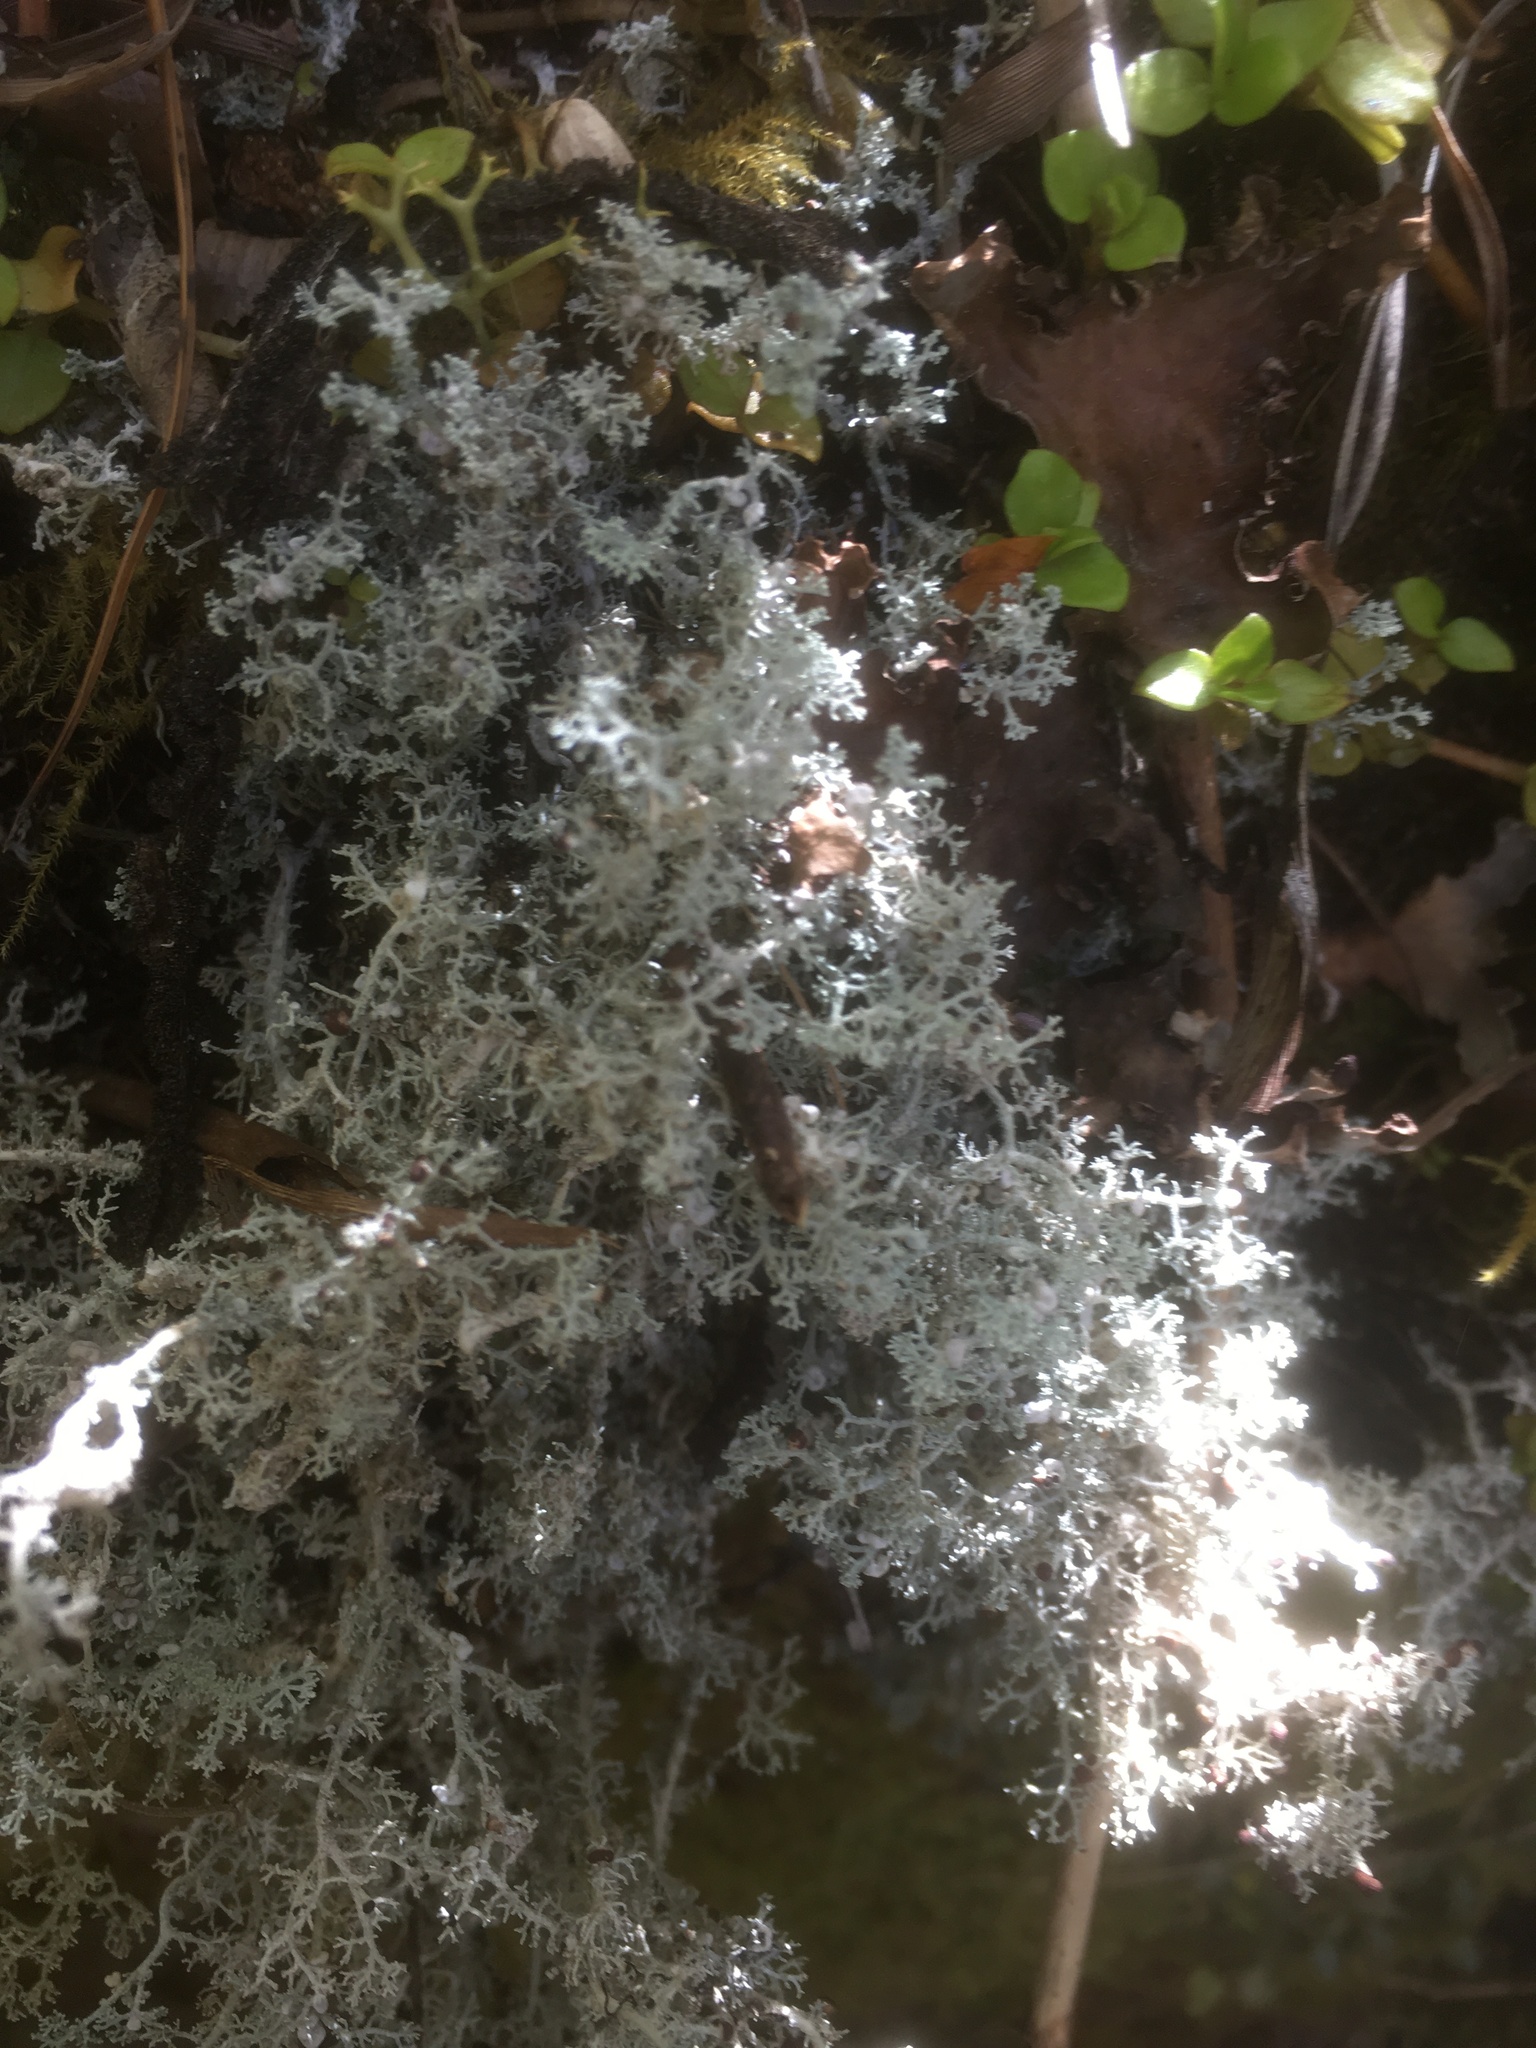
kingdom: Fungi
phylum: Ascomycota
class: Lecanoromycetes
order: Lecanorales
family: Stereocaulaceae
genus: Stereocaulon
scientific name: Stereocaulon ramulosum
